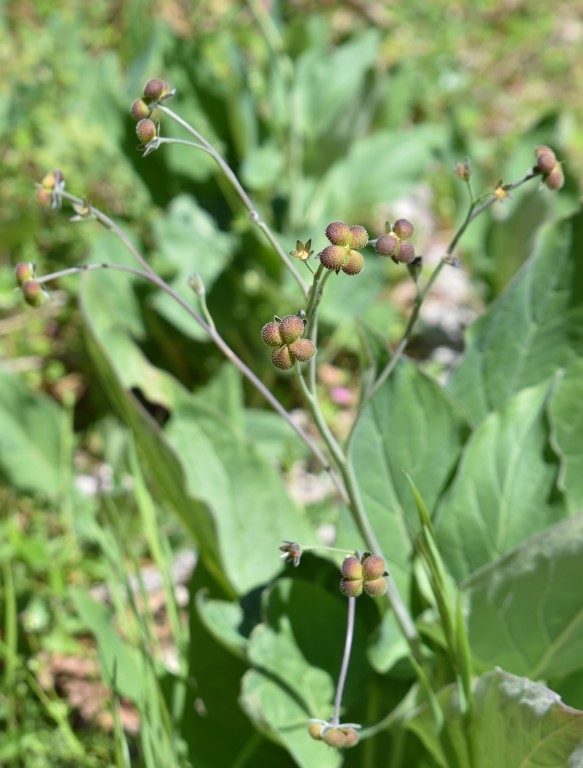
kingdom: Plantae
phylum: Tracheophyta
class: Magnoliopsida
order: Boraginales
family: Boraginaceae
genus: Adelinia
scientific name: Adelinia grande
